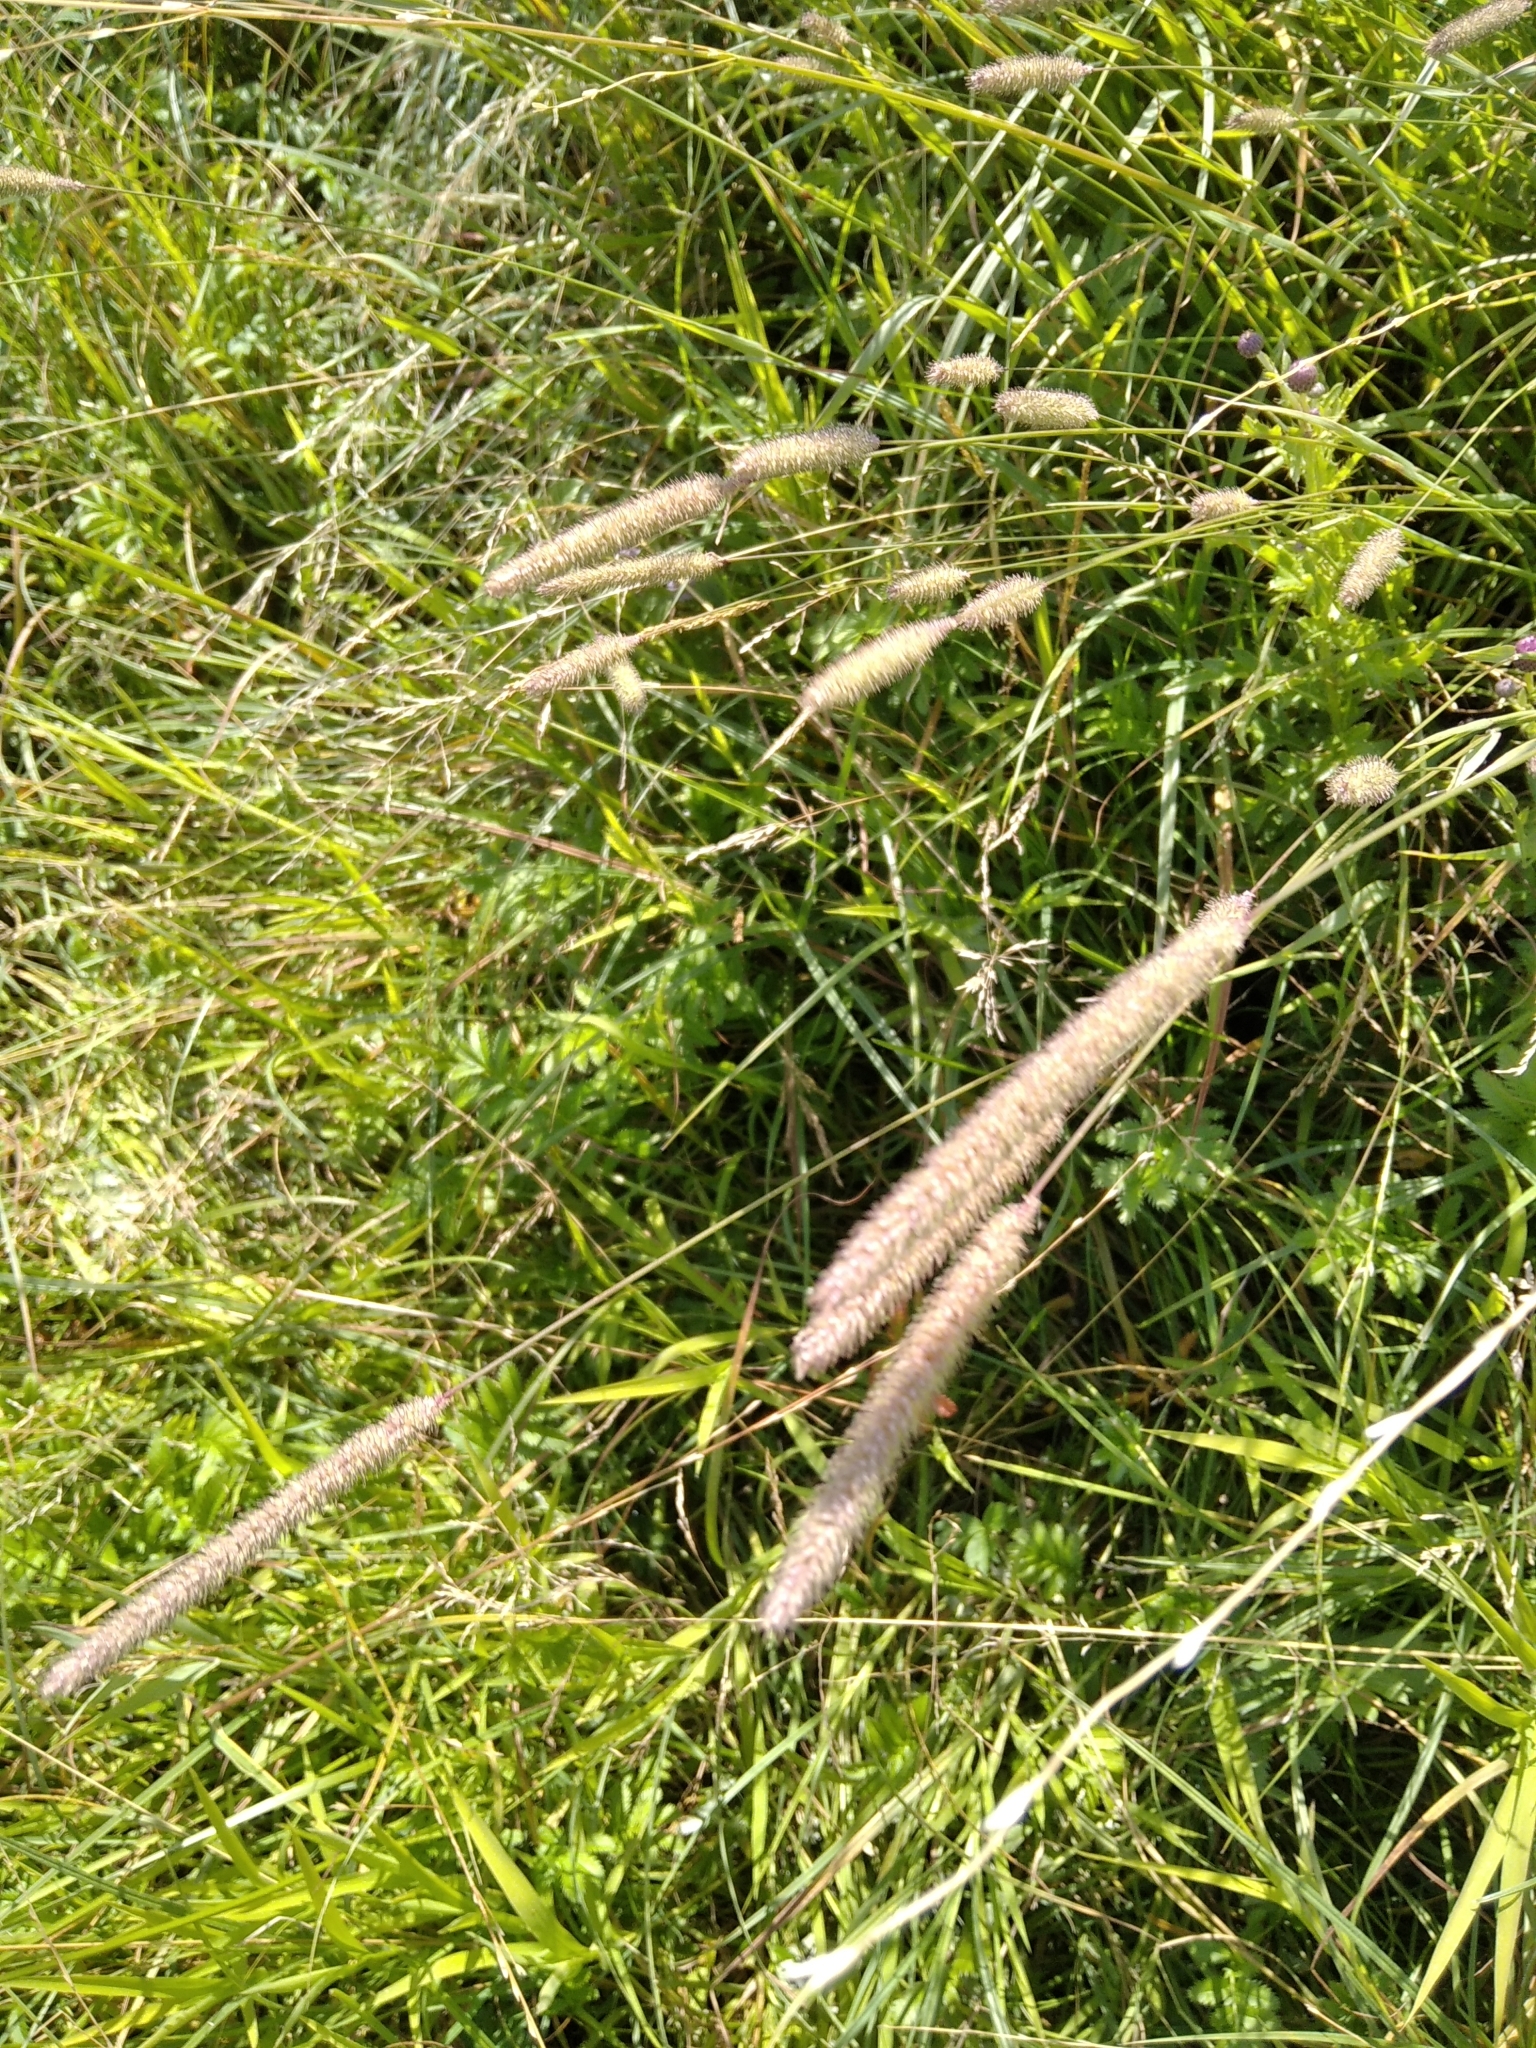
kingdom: Plantae
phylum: Tracheophyta
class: Liliopsida
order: Poales
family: Poaceae
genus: Phleum
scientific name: Phleum pratense
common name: Timothy grass
